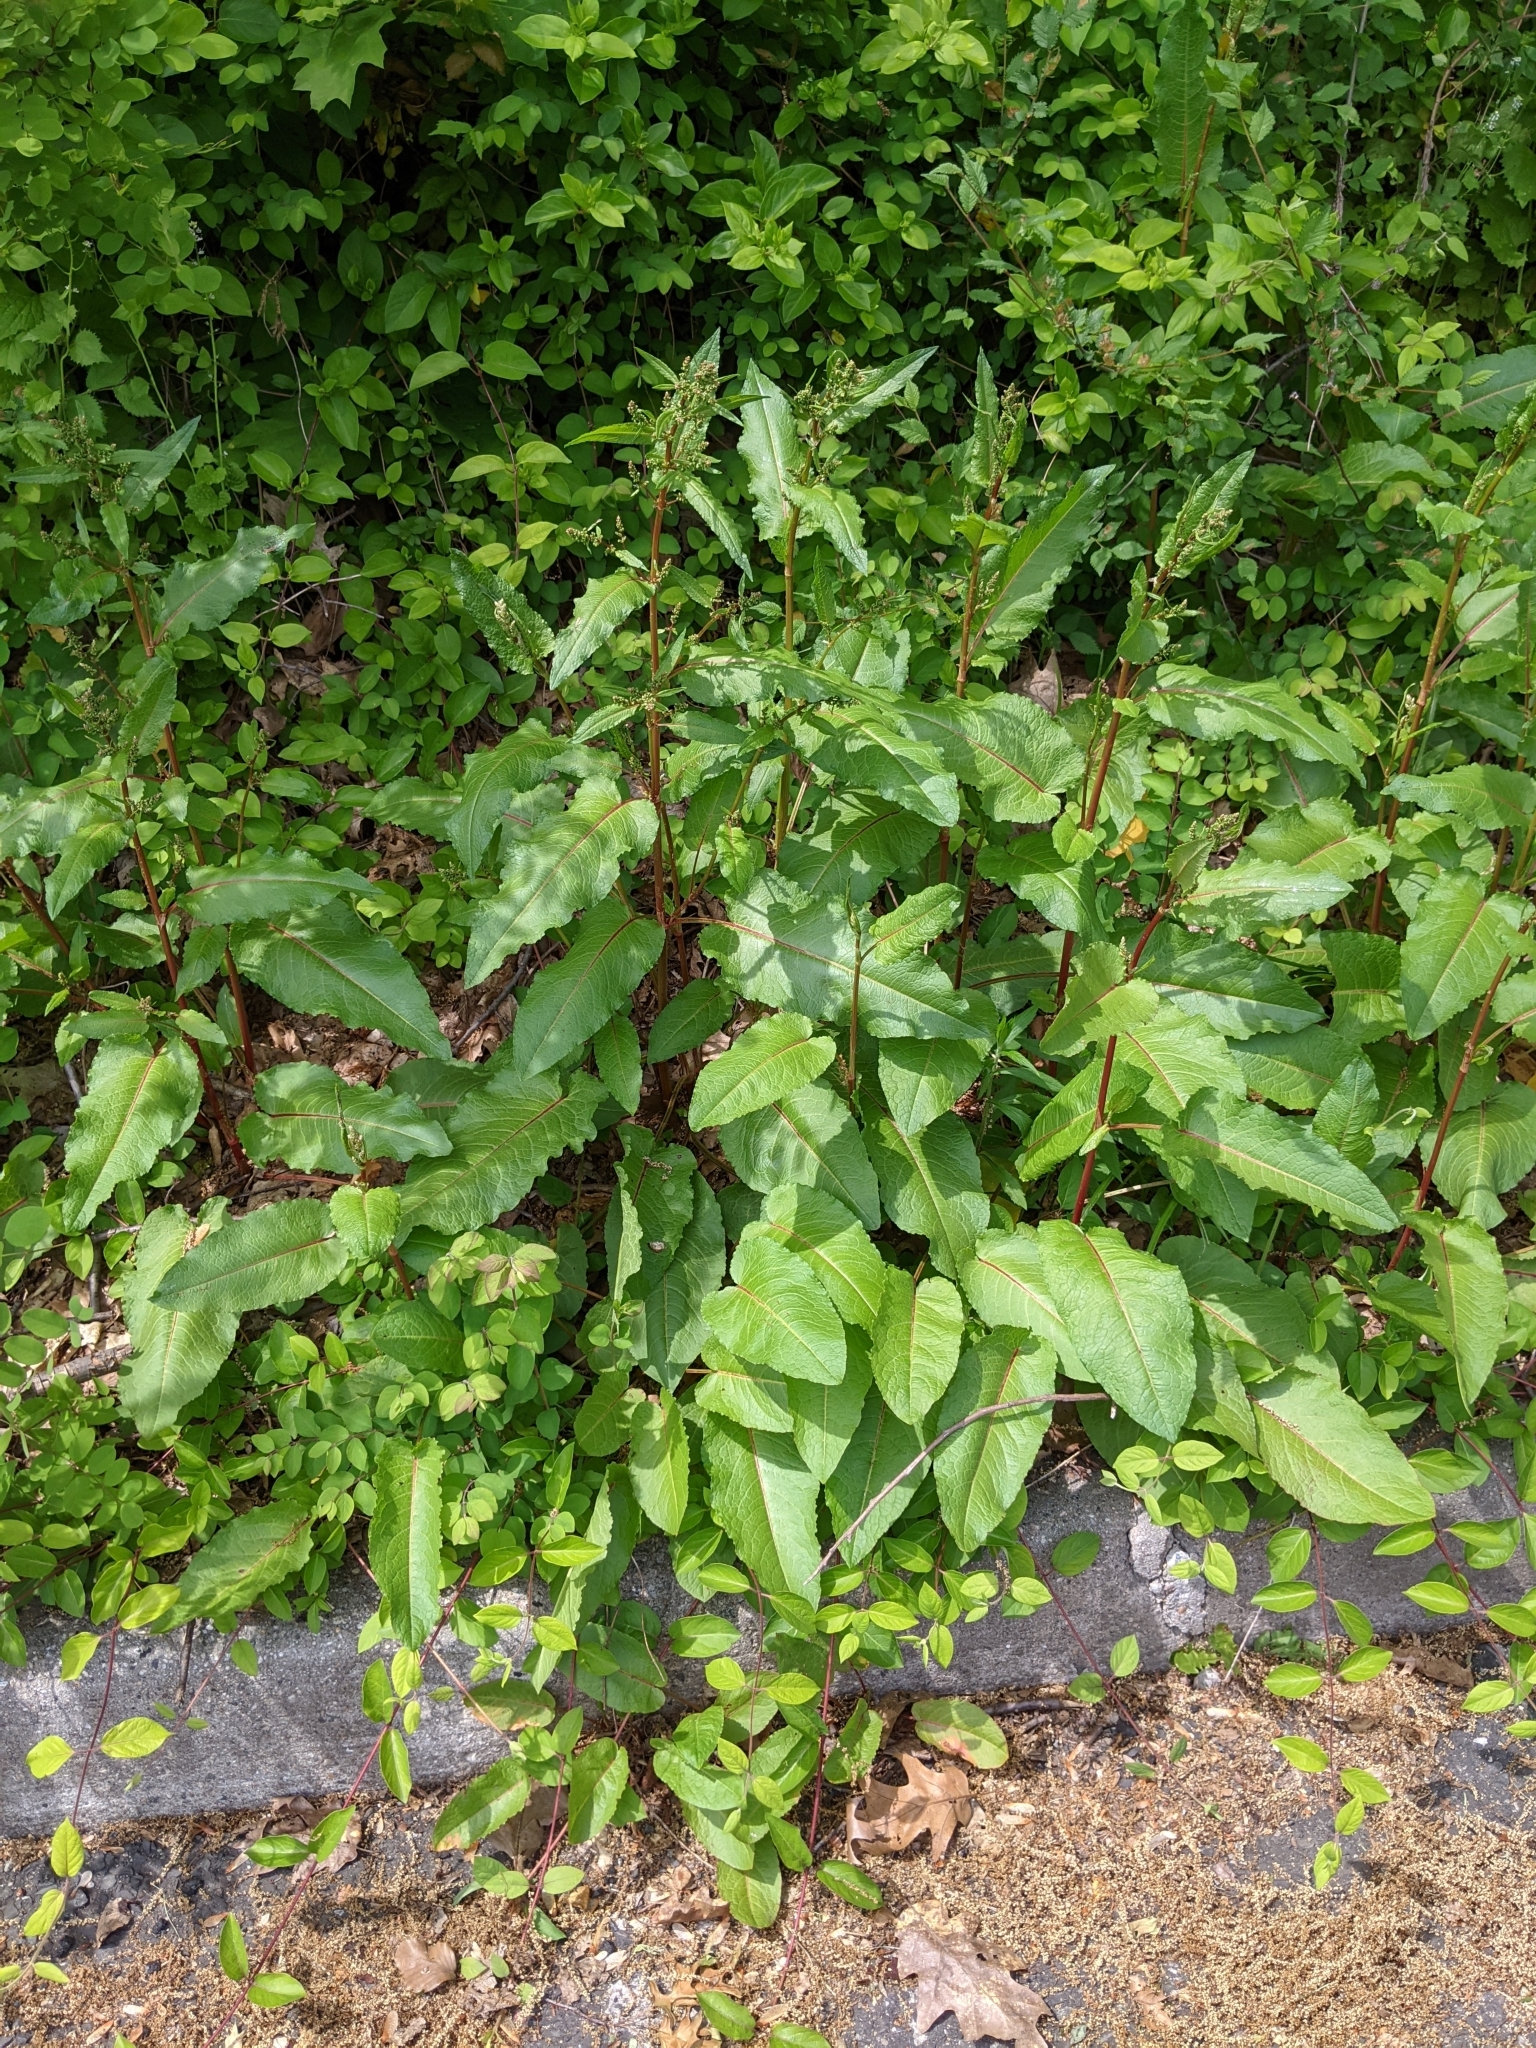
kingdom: Plantae
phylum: Tracheophyta
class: Magnoliopsida
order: Caryophyllales
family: Polygonaceae
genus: Rumex
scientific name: Rumex obtusifolius
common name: Bitter dock
